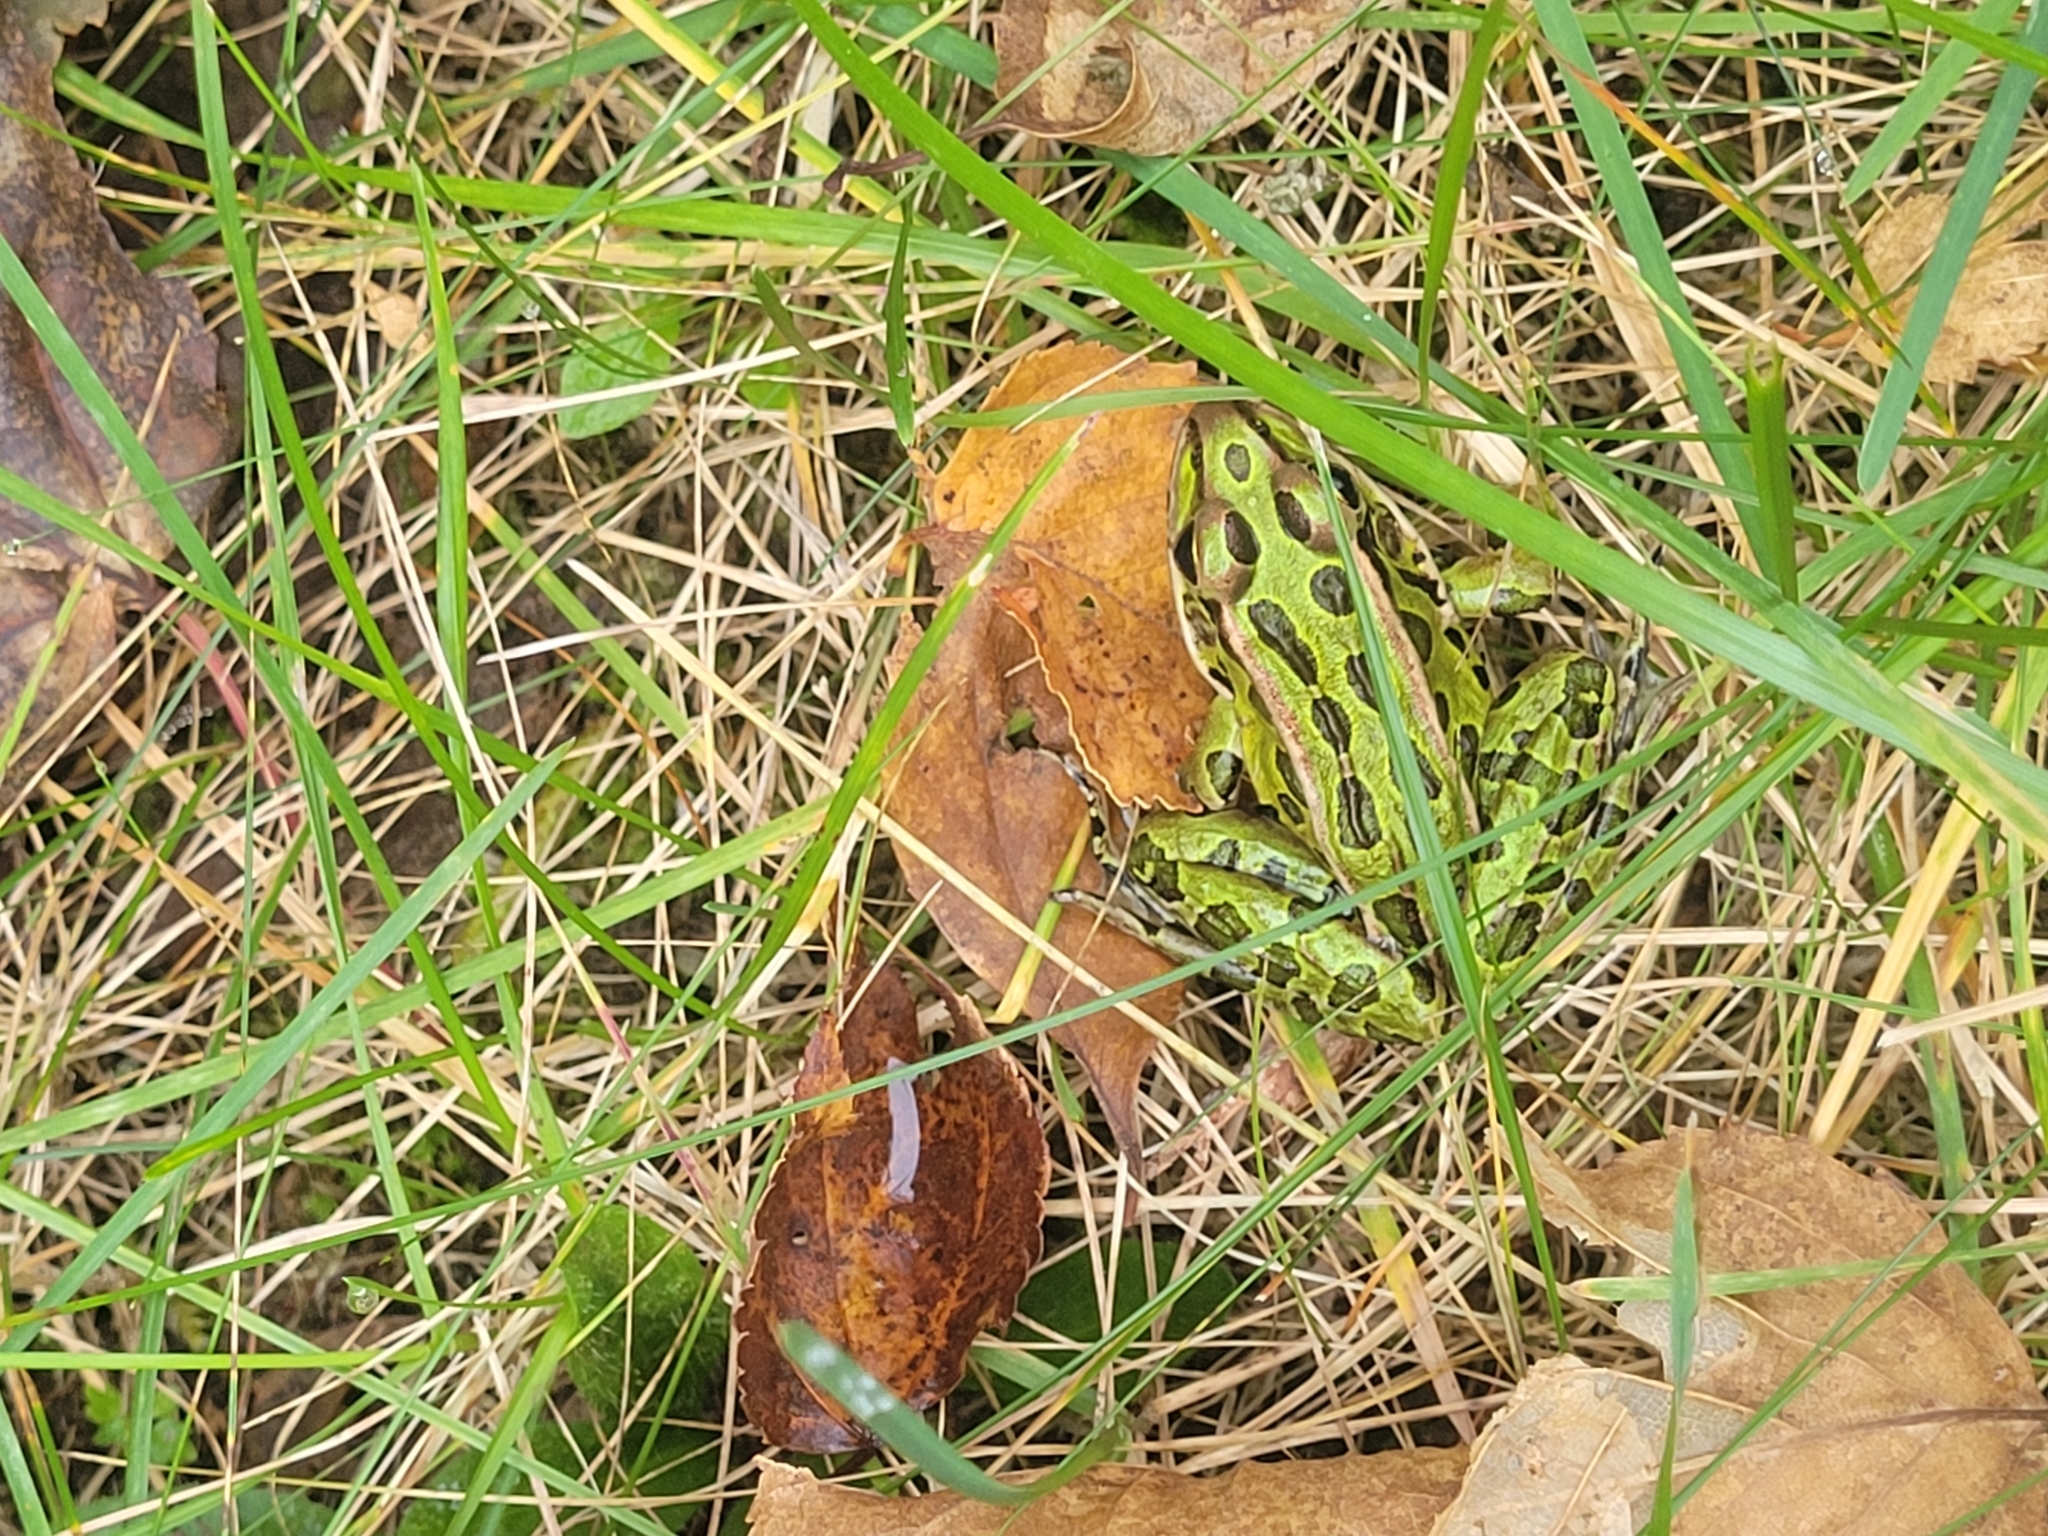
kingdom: Animalia
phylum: Chordata
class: Amphibia
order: Anura
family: Ranidae
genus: Lithobates
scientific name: Lithobates pipiens
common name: Northern leopard frog
